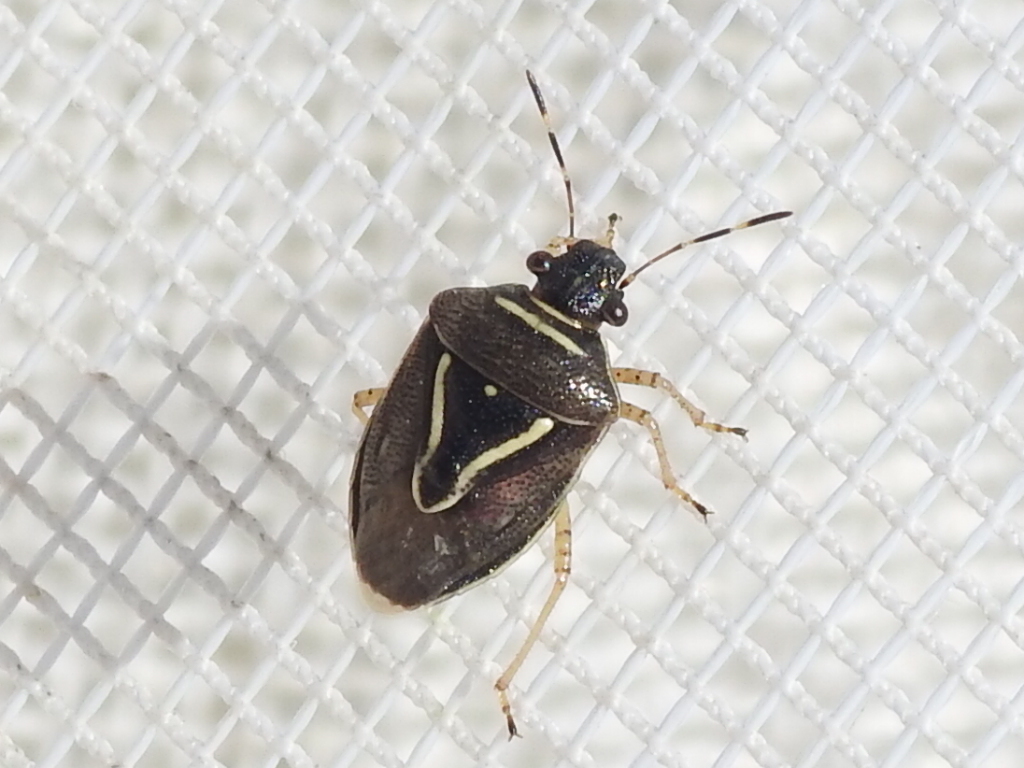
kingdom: Animalia
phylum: Arthropoda
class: Insecta
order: Hemiptera
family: Pentatomidae
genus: Mormidea
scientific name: Mormidea lugens
